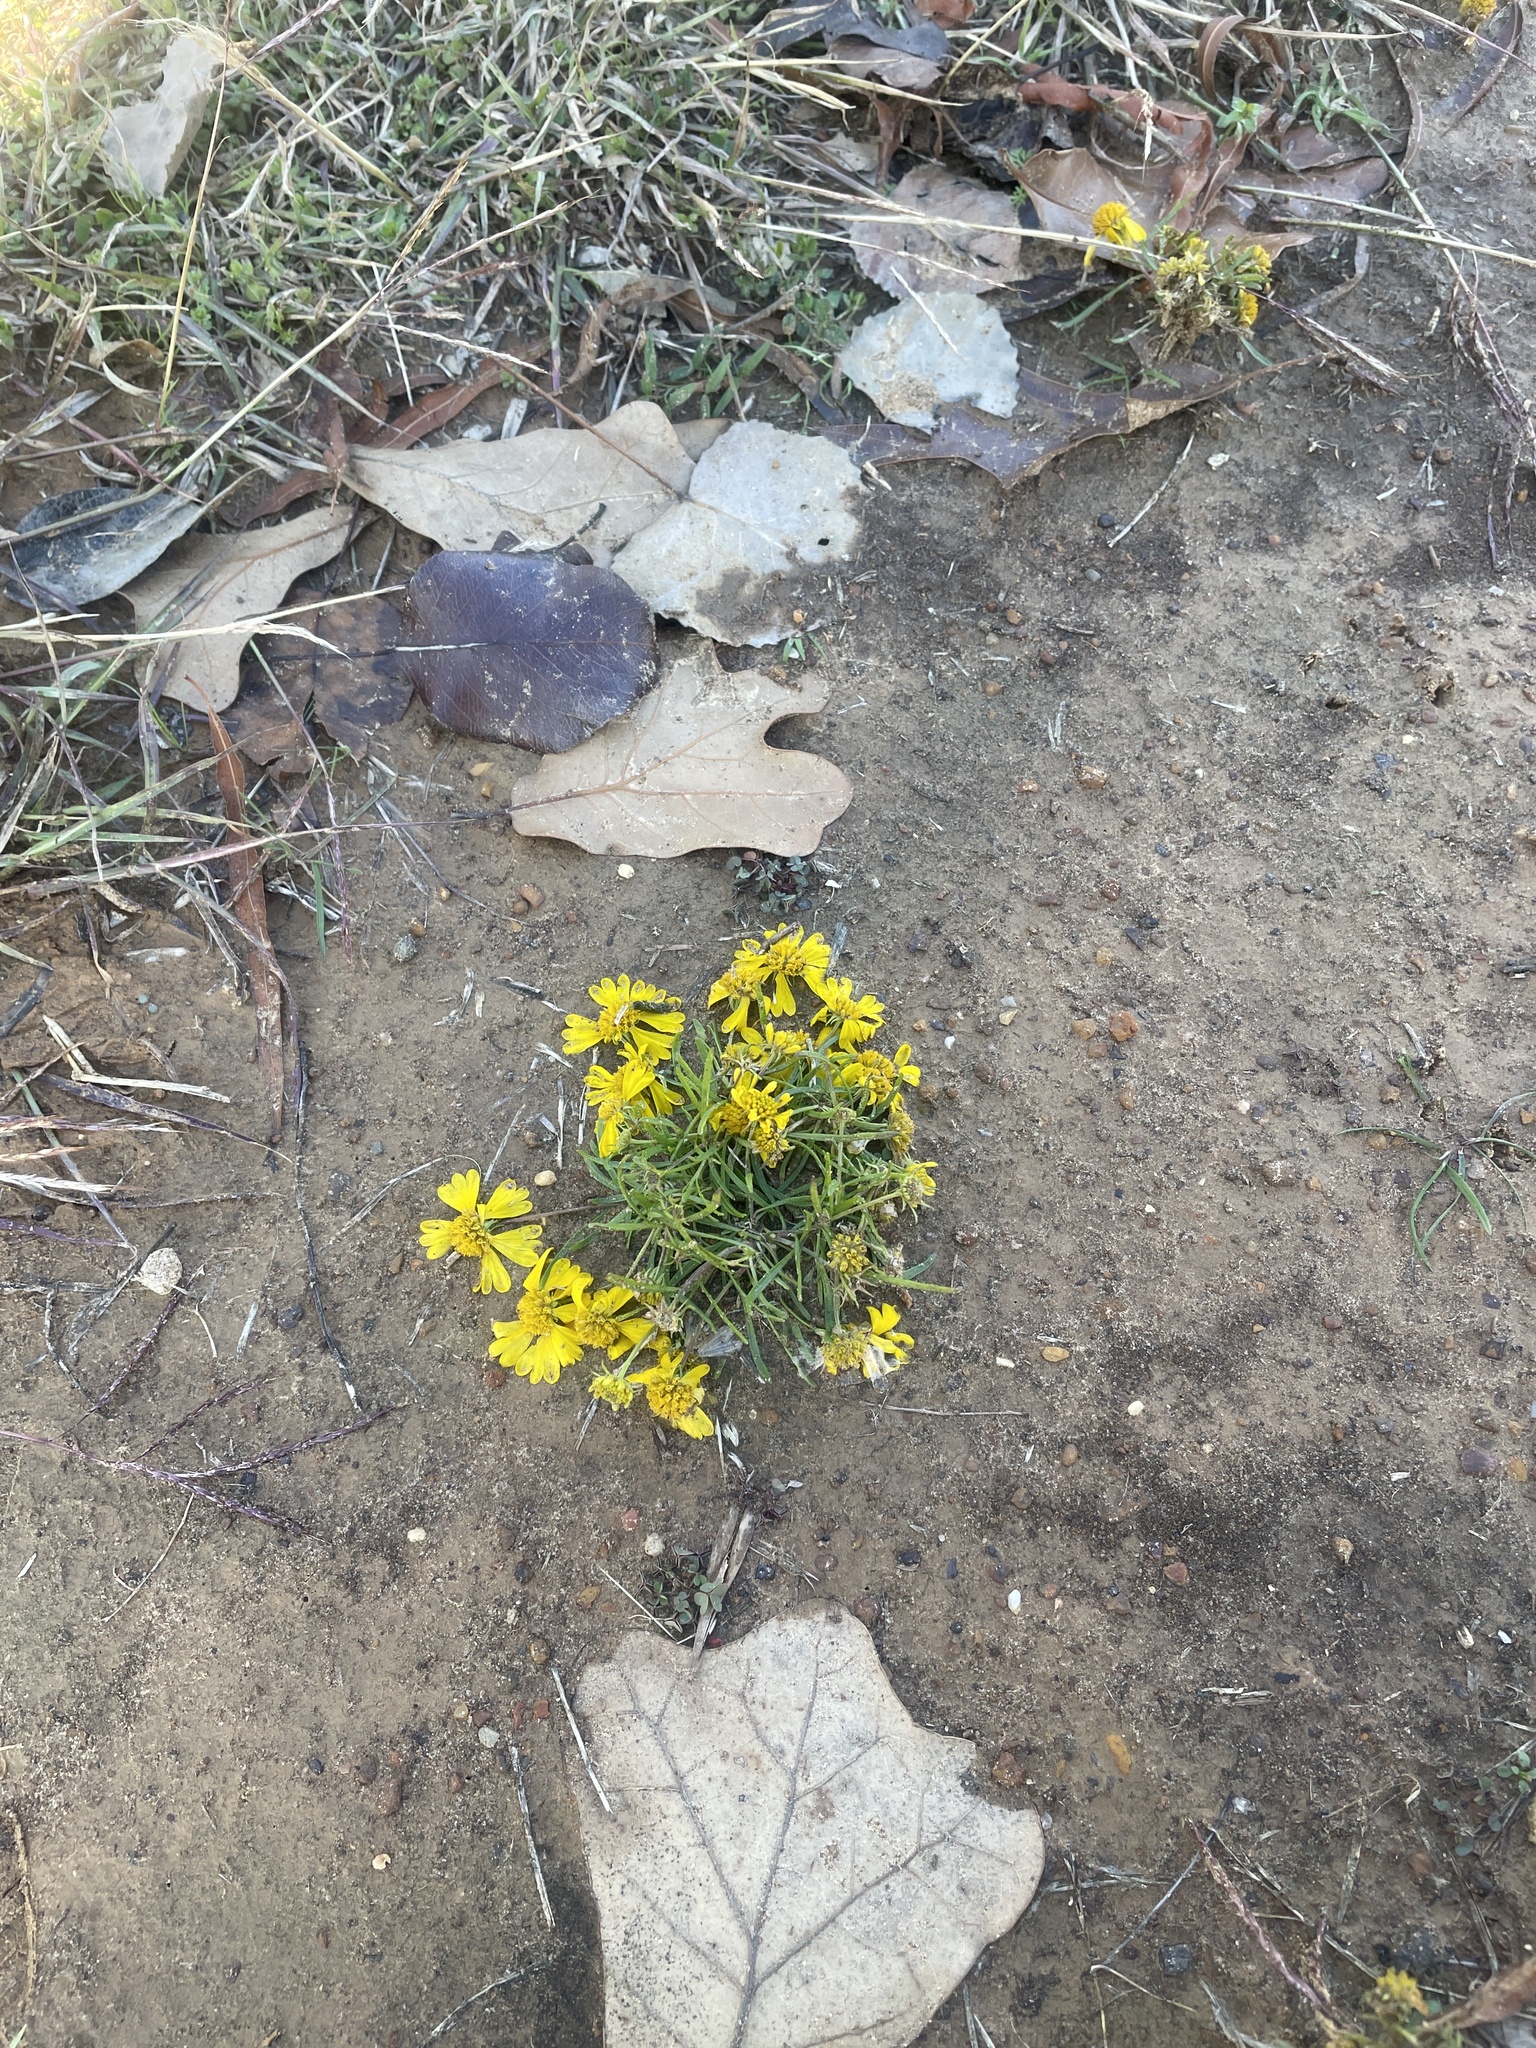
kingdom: Plantae
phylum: Tracheophyta
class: Magnoliopsida
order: Asterales
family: Asteraceae
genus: Helenium
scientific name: Helenium amarum
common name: Bitter sneezeweed
